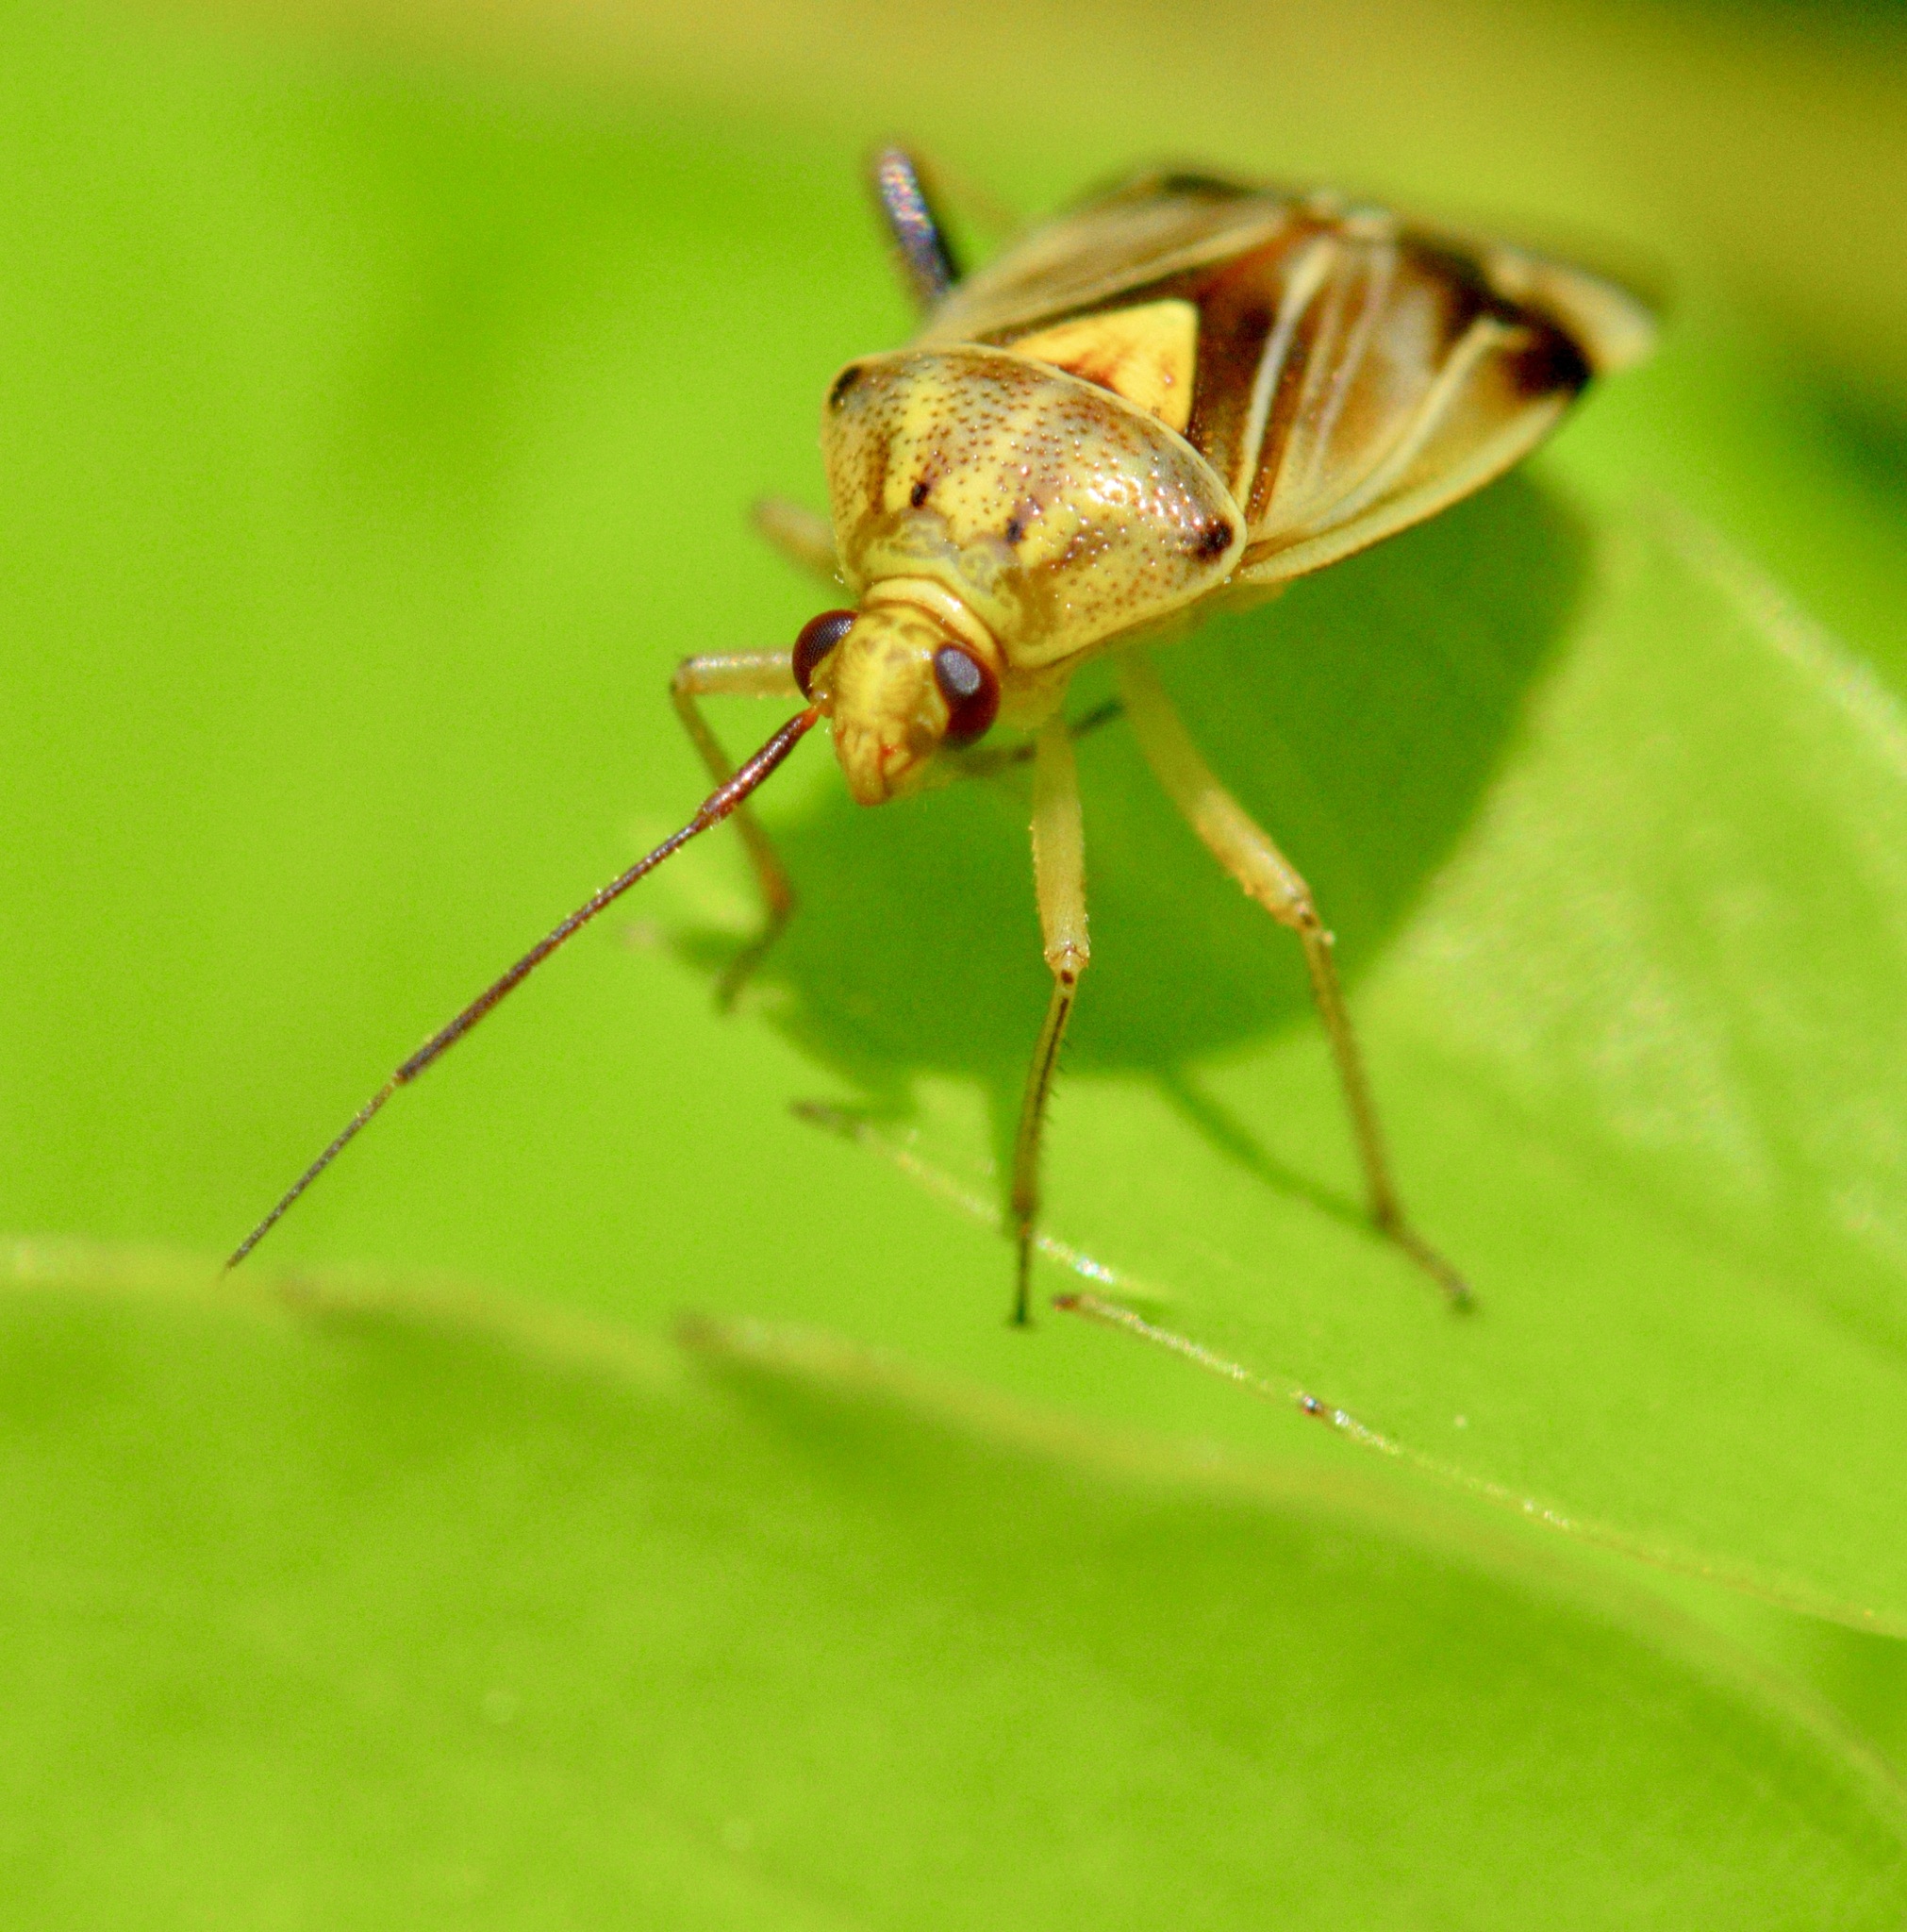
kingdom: Animalia
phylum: Arthropoda
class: Insecta
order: Hemiptera
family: Miridae
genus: Lygus
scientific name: Lygus lineolaris
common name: North american tarnished plant bug
